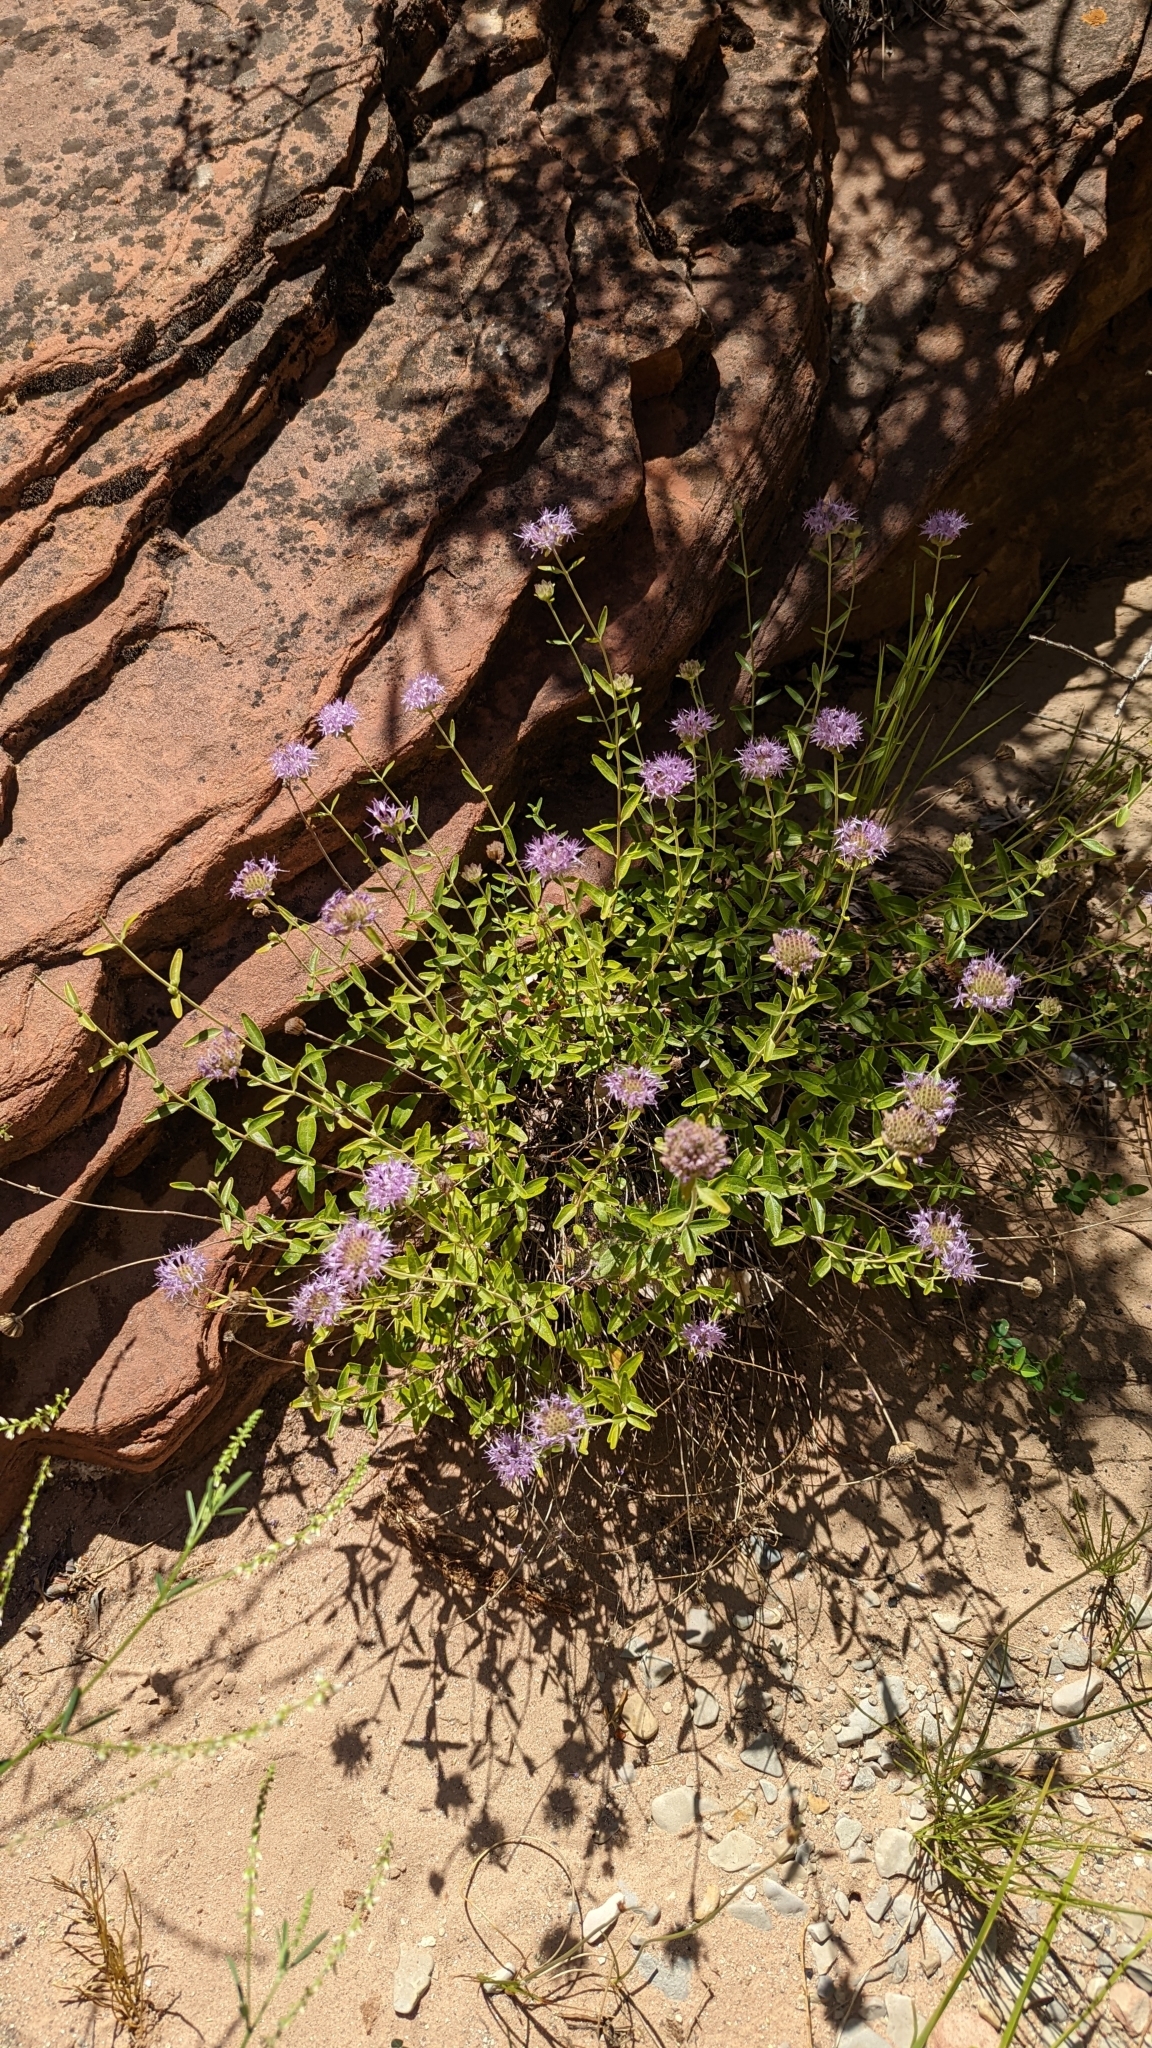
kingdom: Plantae
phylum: Tracheophyta
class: Magnoliopsida
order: Lamiales
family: Lamiaceae
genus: Monardella
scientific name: Monardella odoratissima
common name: Pacific monardella
